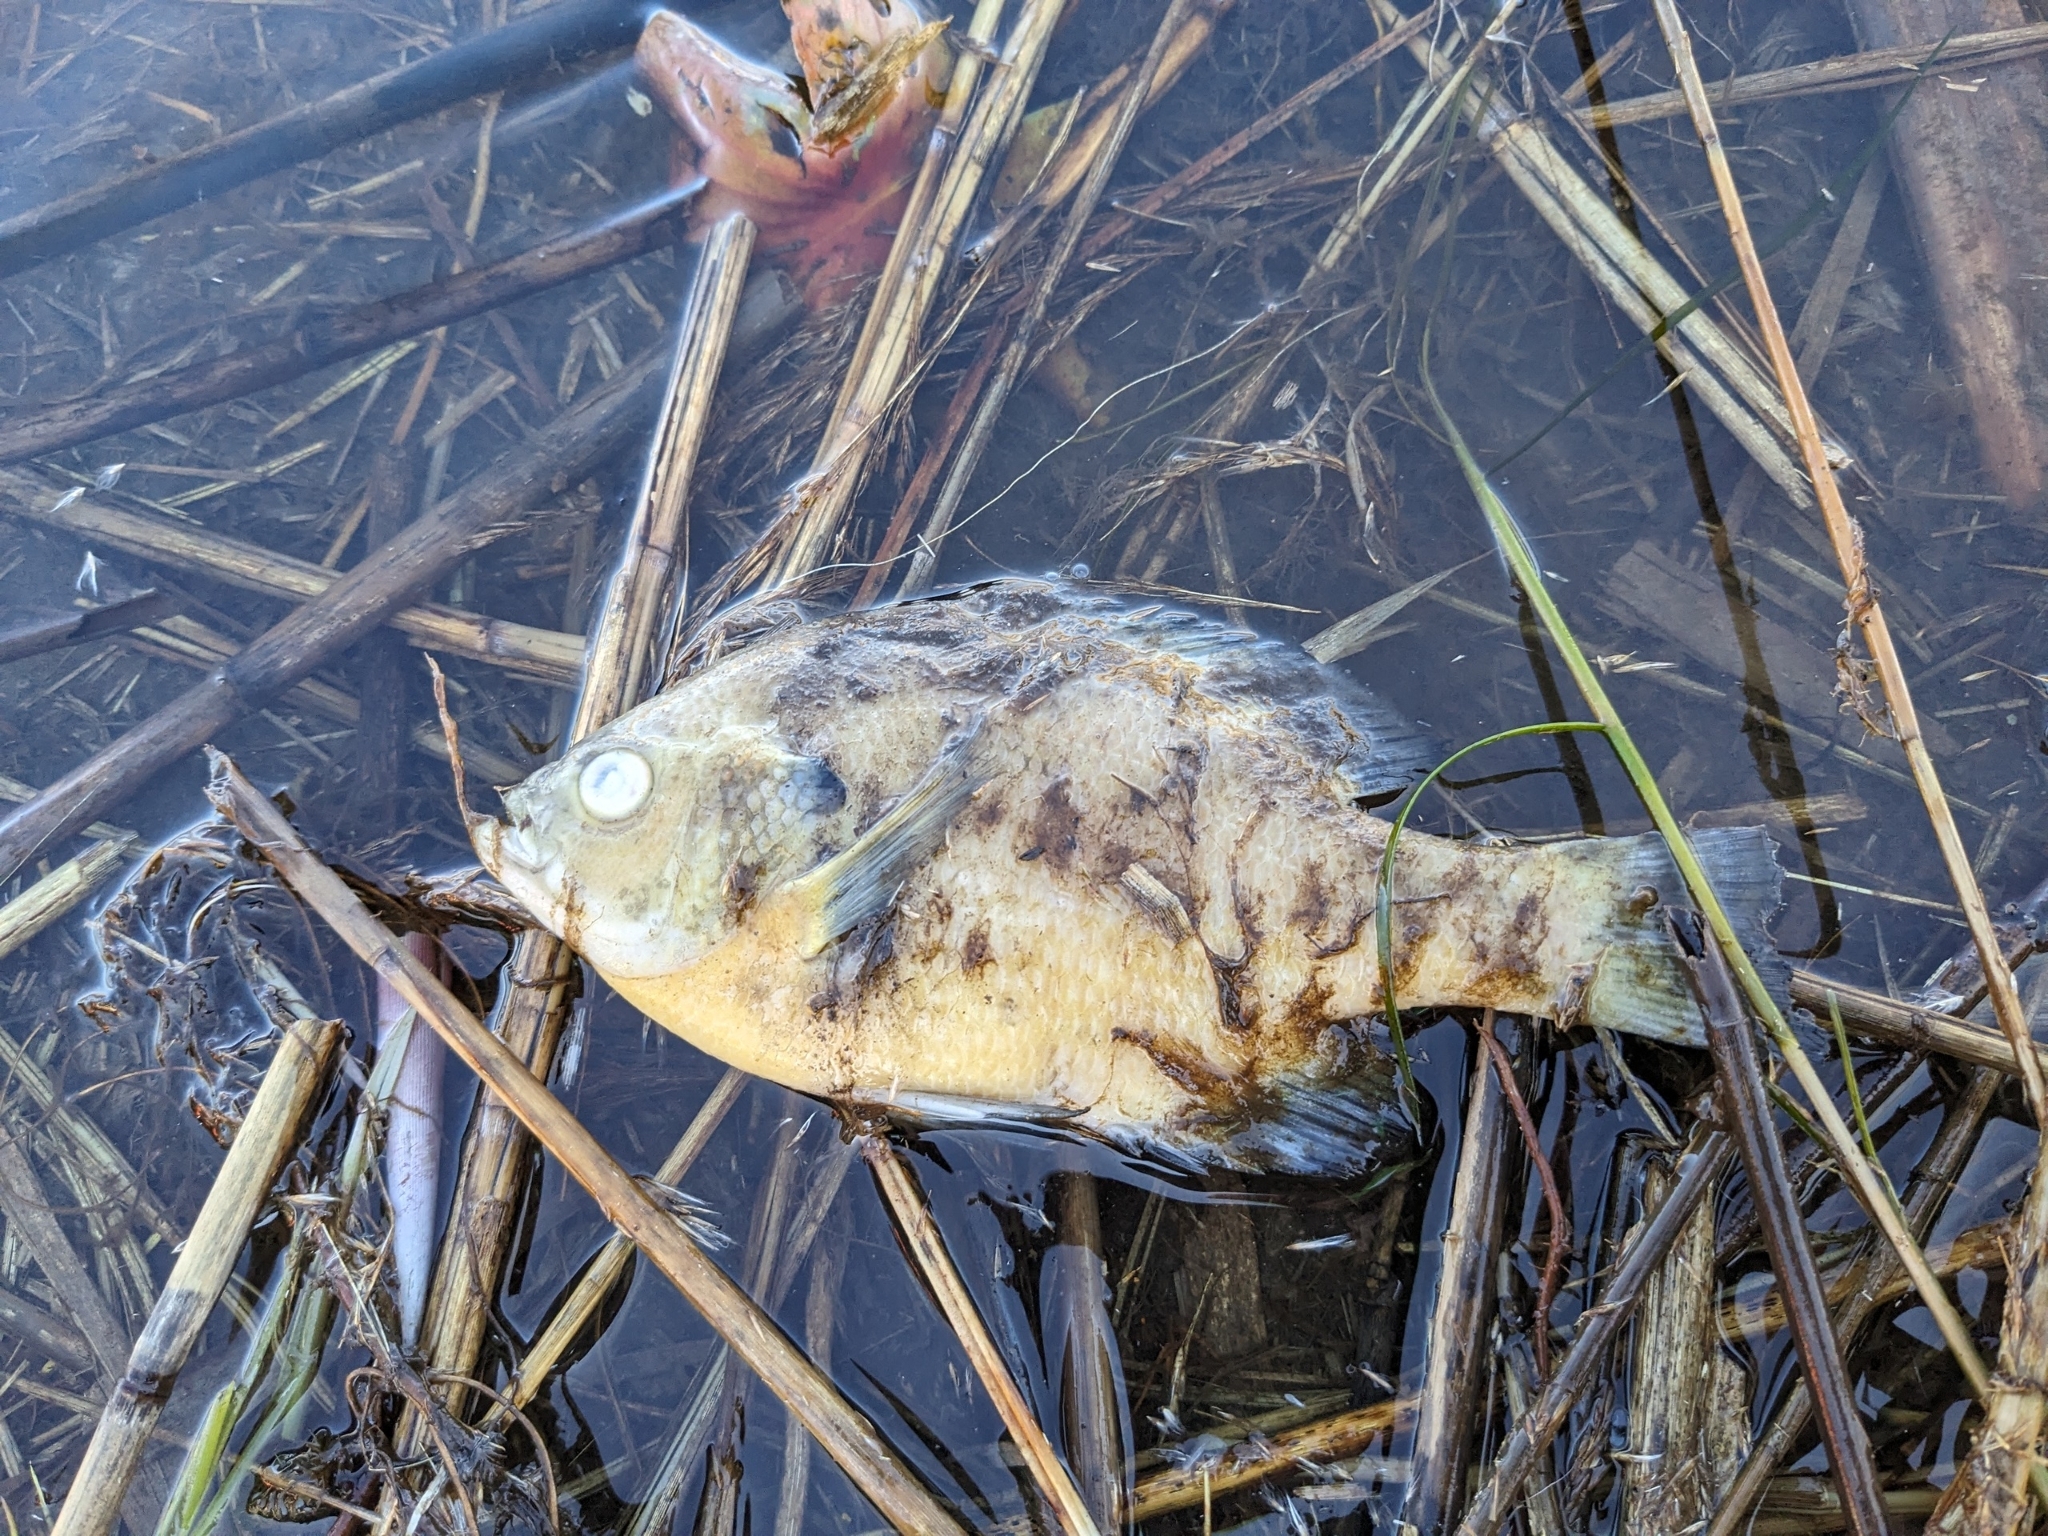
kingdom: Animalia
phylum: Chordata
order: Perciformes
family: Centrarchidae
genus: Lepomis
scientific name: Lepomis macrochirus
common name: Bluegill
